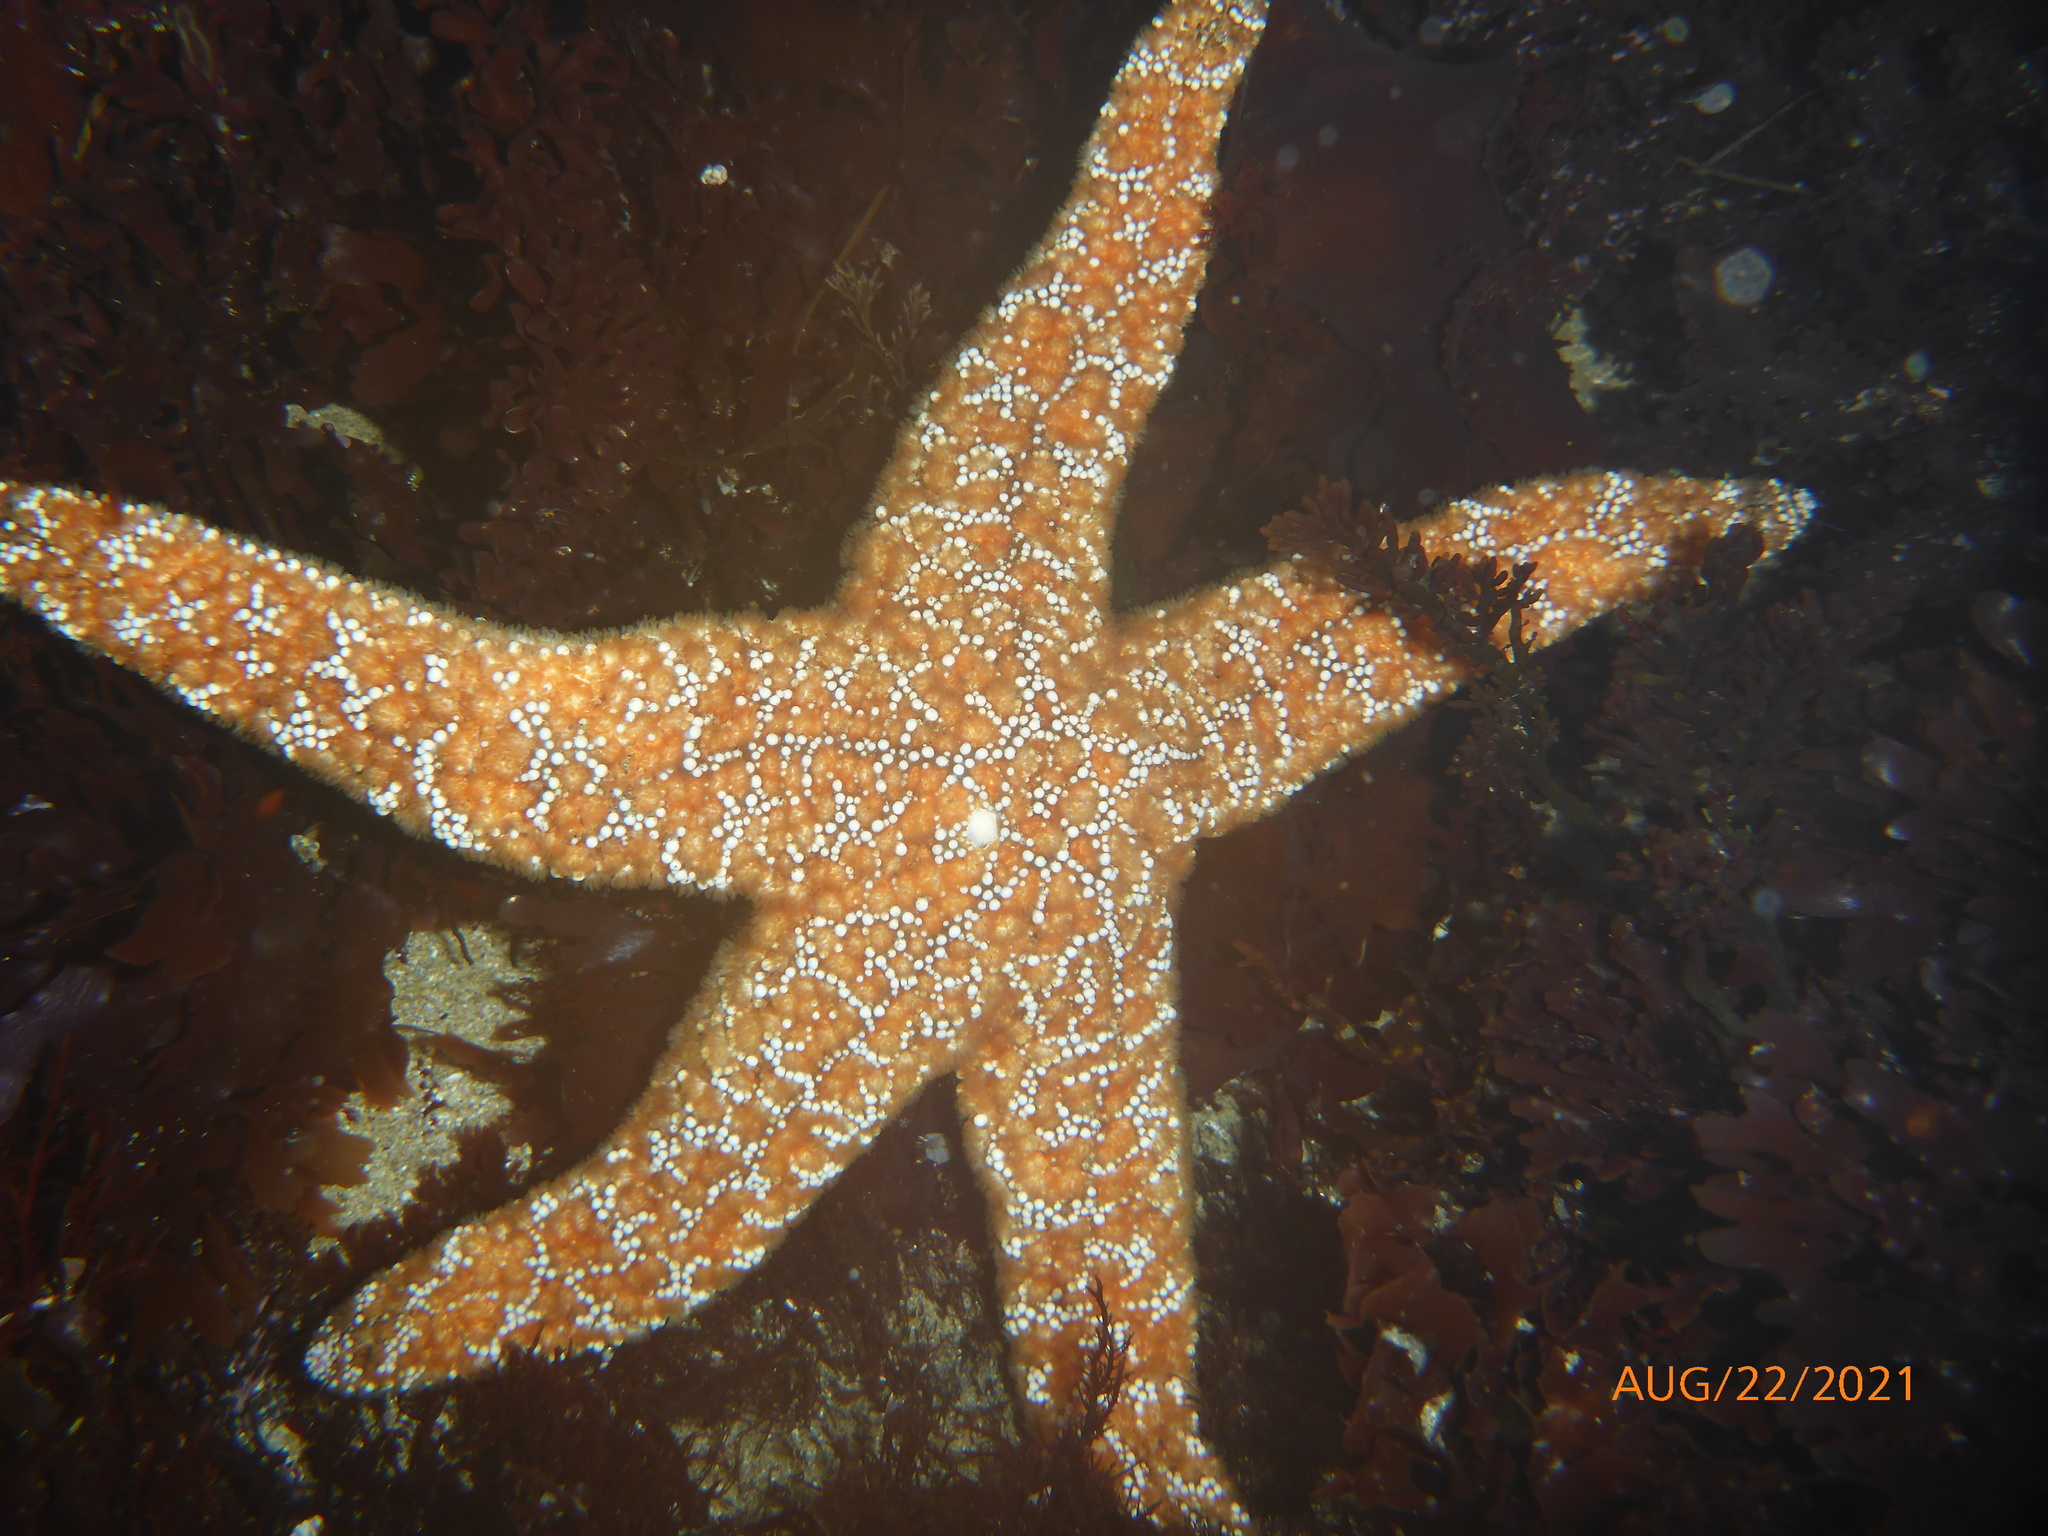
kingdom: Animalia
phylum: Echinodermata
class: Asteroidea
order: Forcipulatida
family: Asteriidae
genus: Pisaster
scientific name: Pisaster ochraceus
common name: Ochre stars
